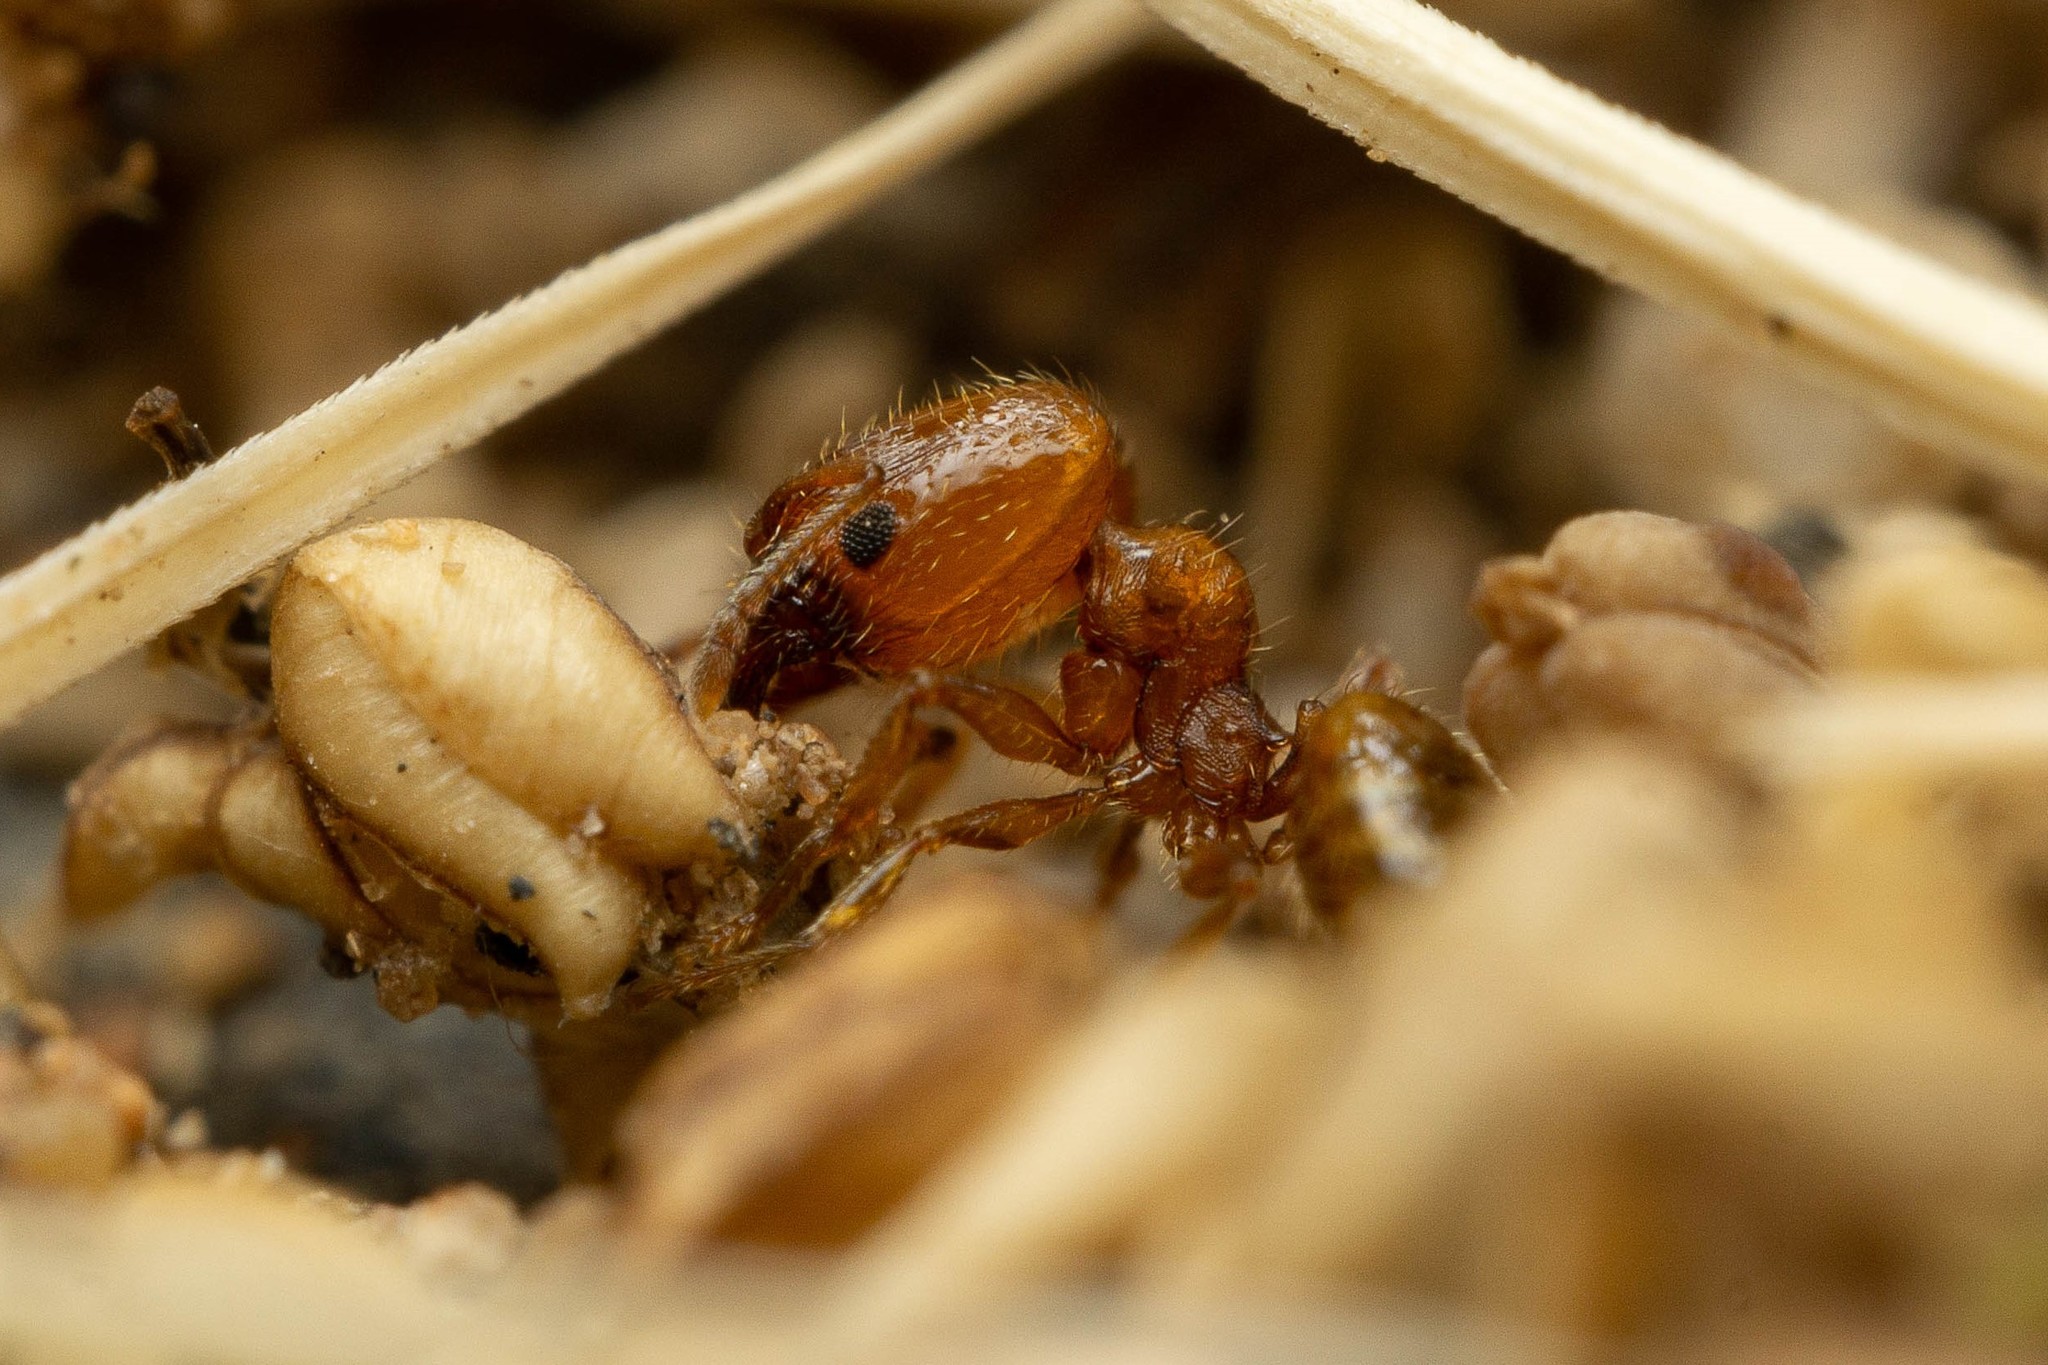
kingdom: Animalia
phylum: Arthropoda
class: Insecta
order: Hymenoptera
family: Formicidae
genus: Pheidole
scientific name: Pheidole micula
